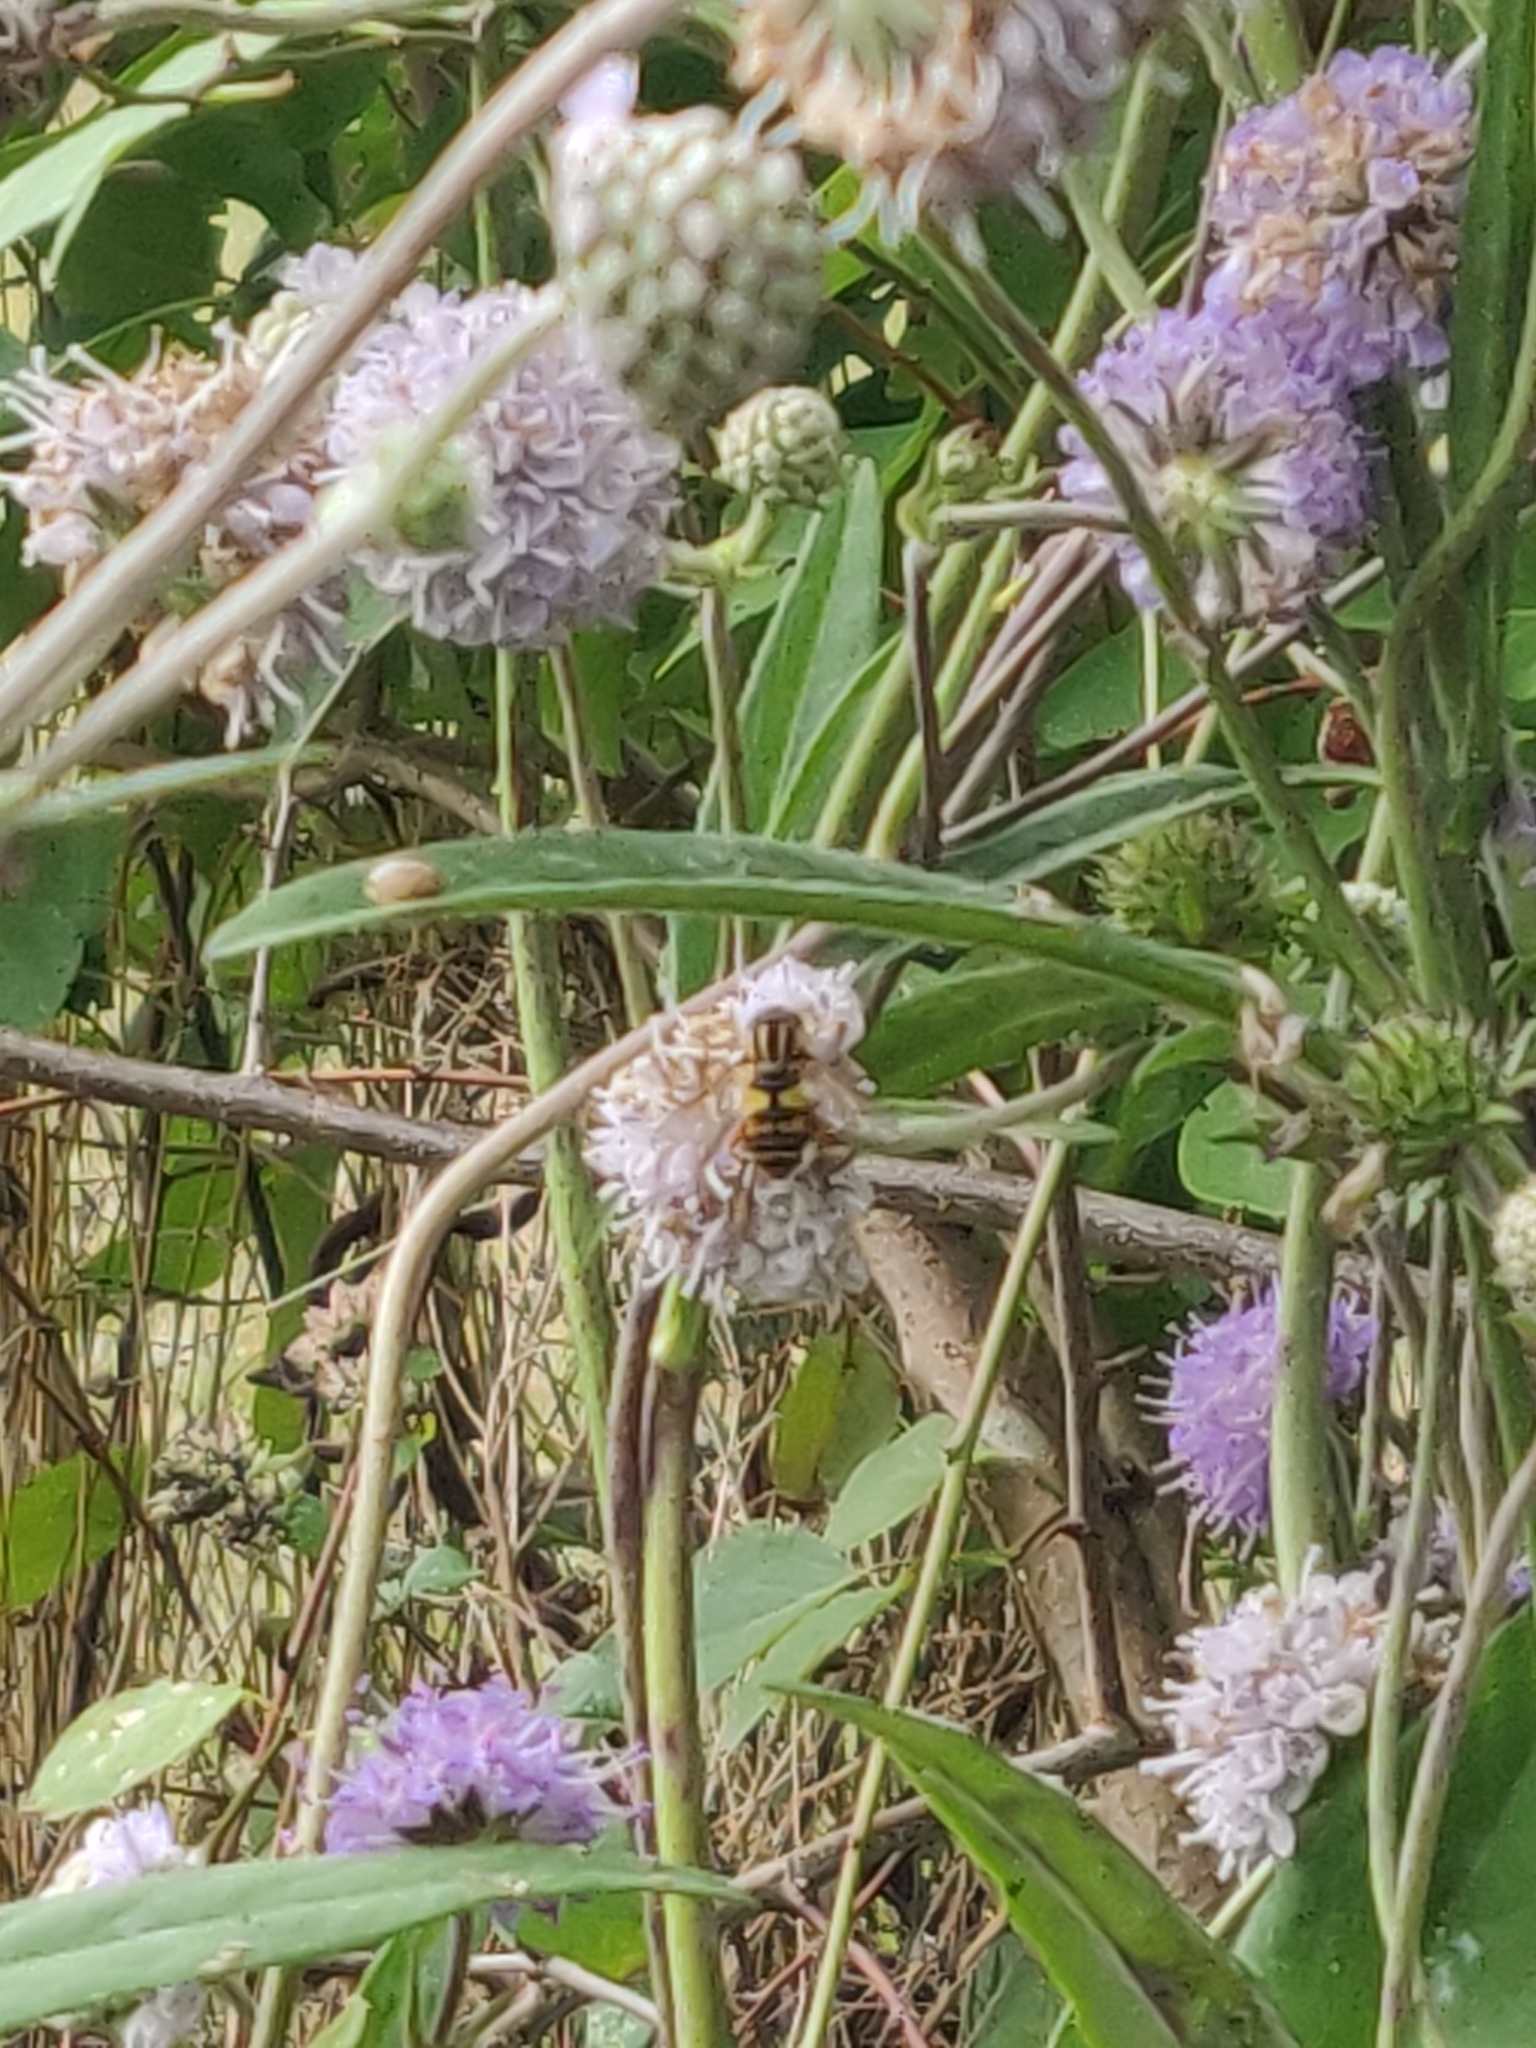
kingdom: Animalia
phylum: Arthropoda
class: Insecta
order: Diptera
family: Syrphidae
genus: Helophilus
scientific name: Helophilus hybridus
